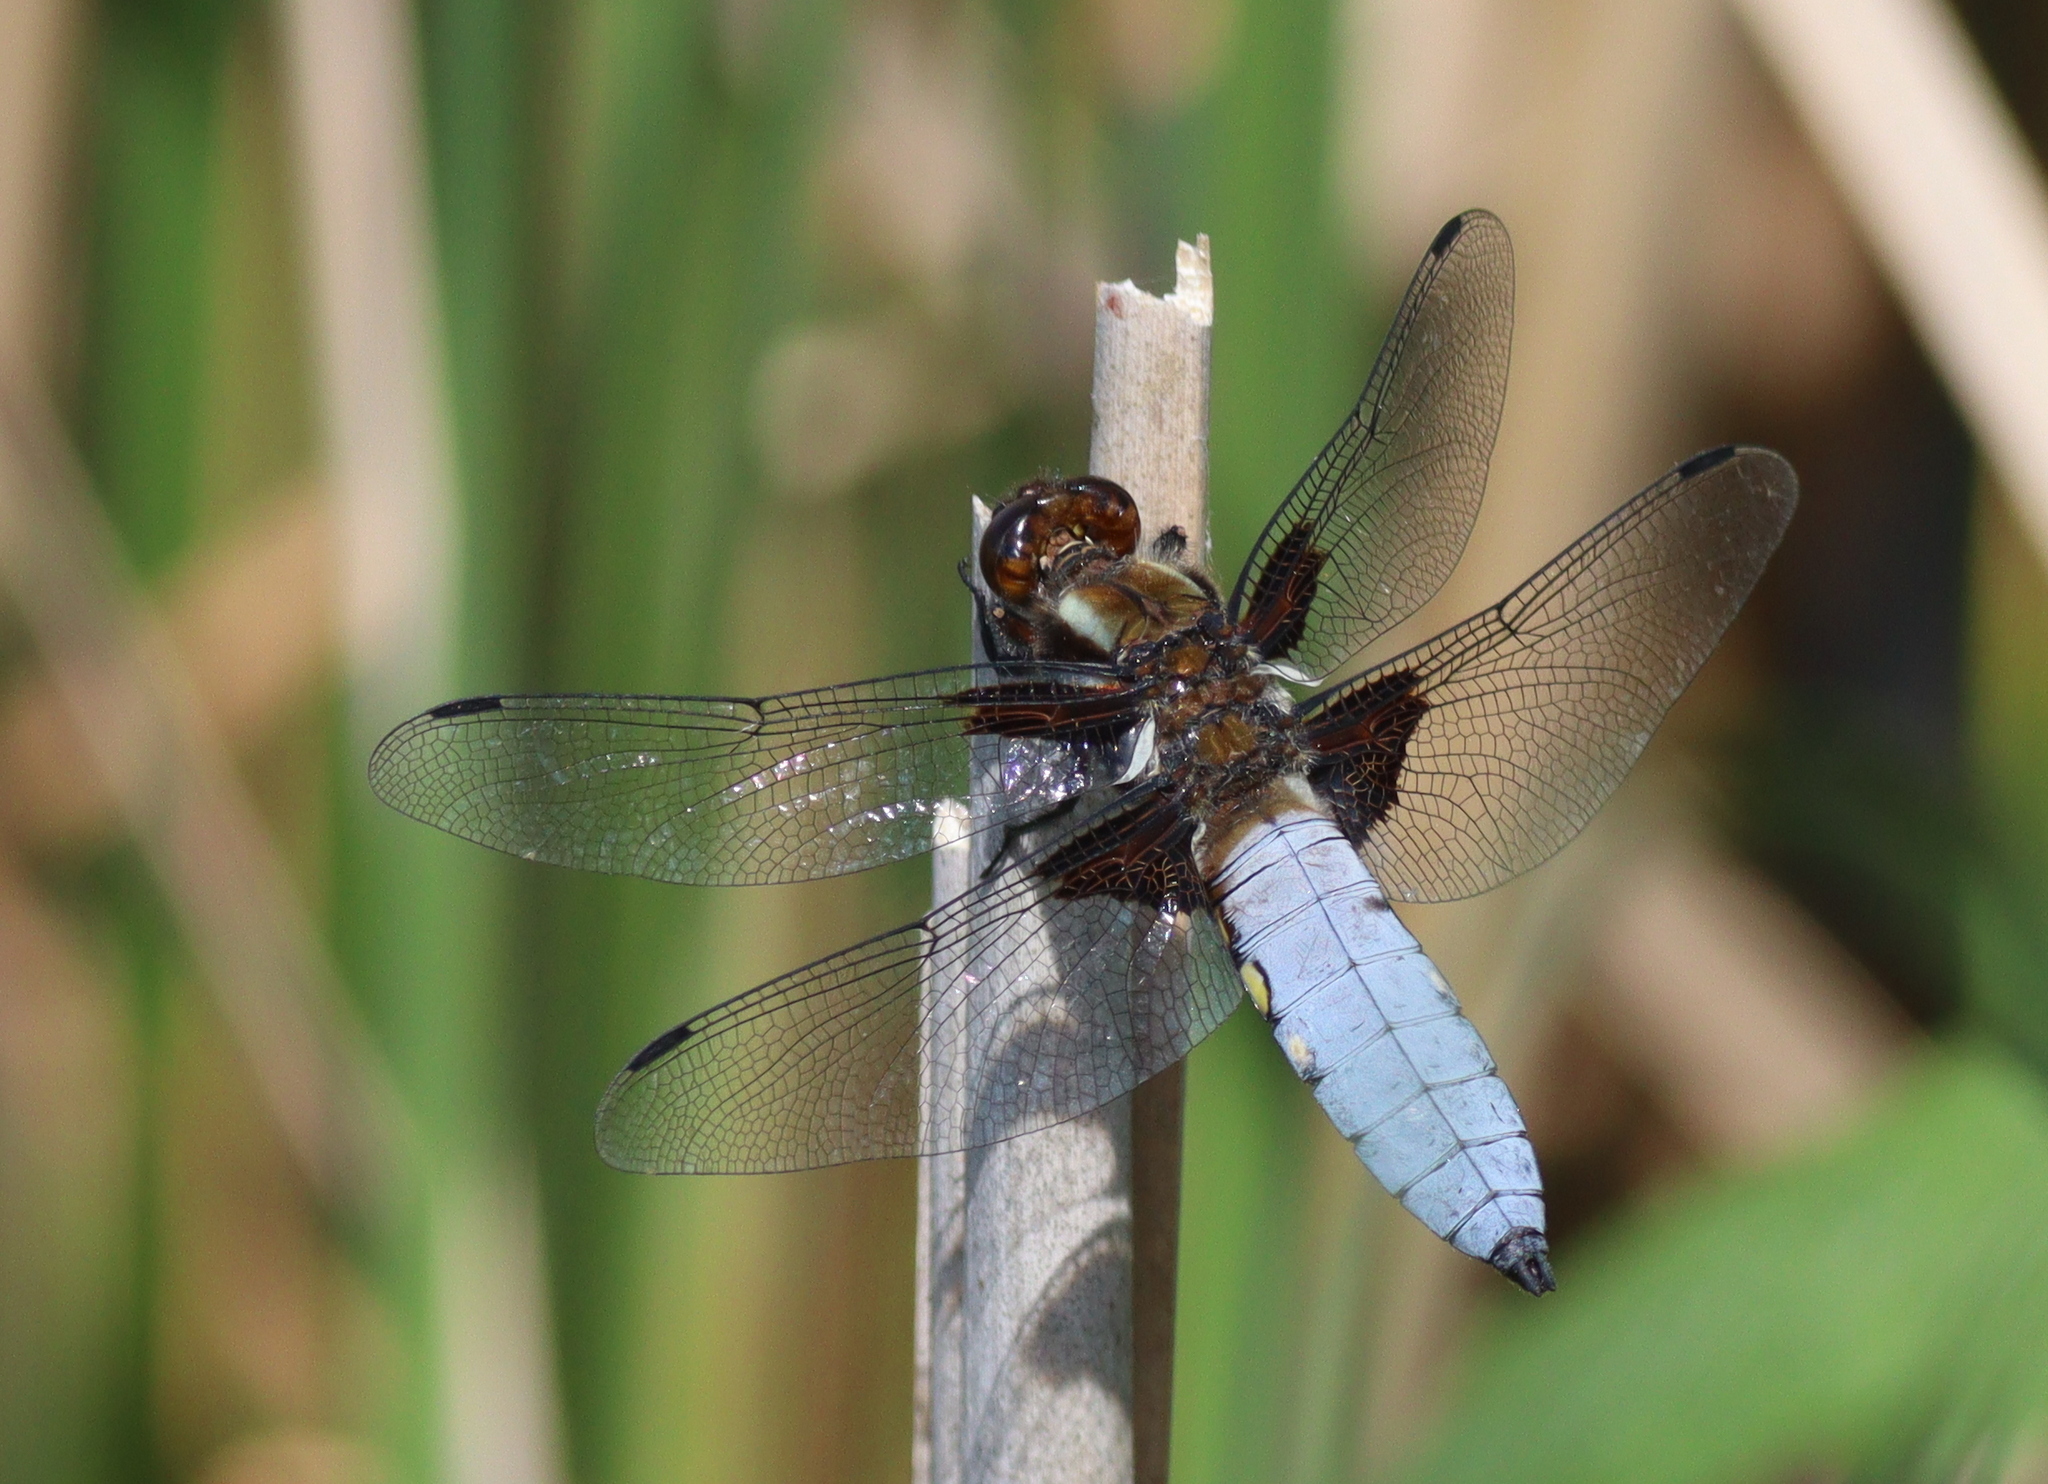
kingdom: Animalia
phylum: Arthropoda
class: Insecta
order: Odonata
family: Libellulidae
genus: Libellula
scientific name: Libellula depressa
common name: Broad-bodied chaser
